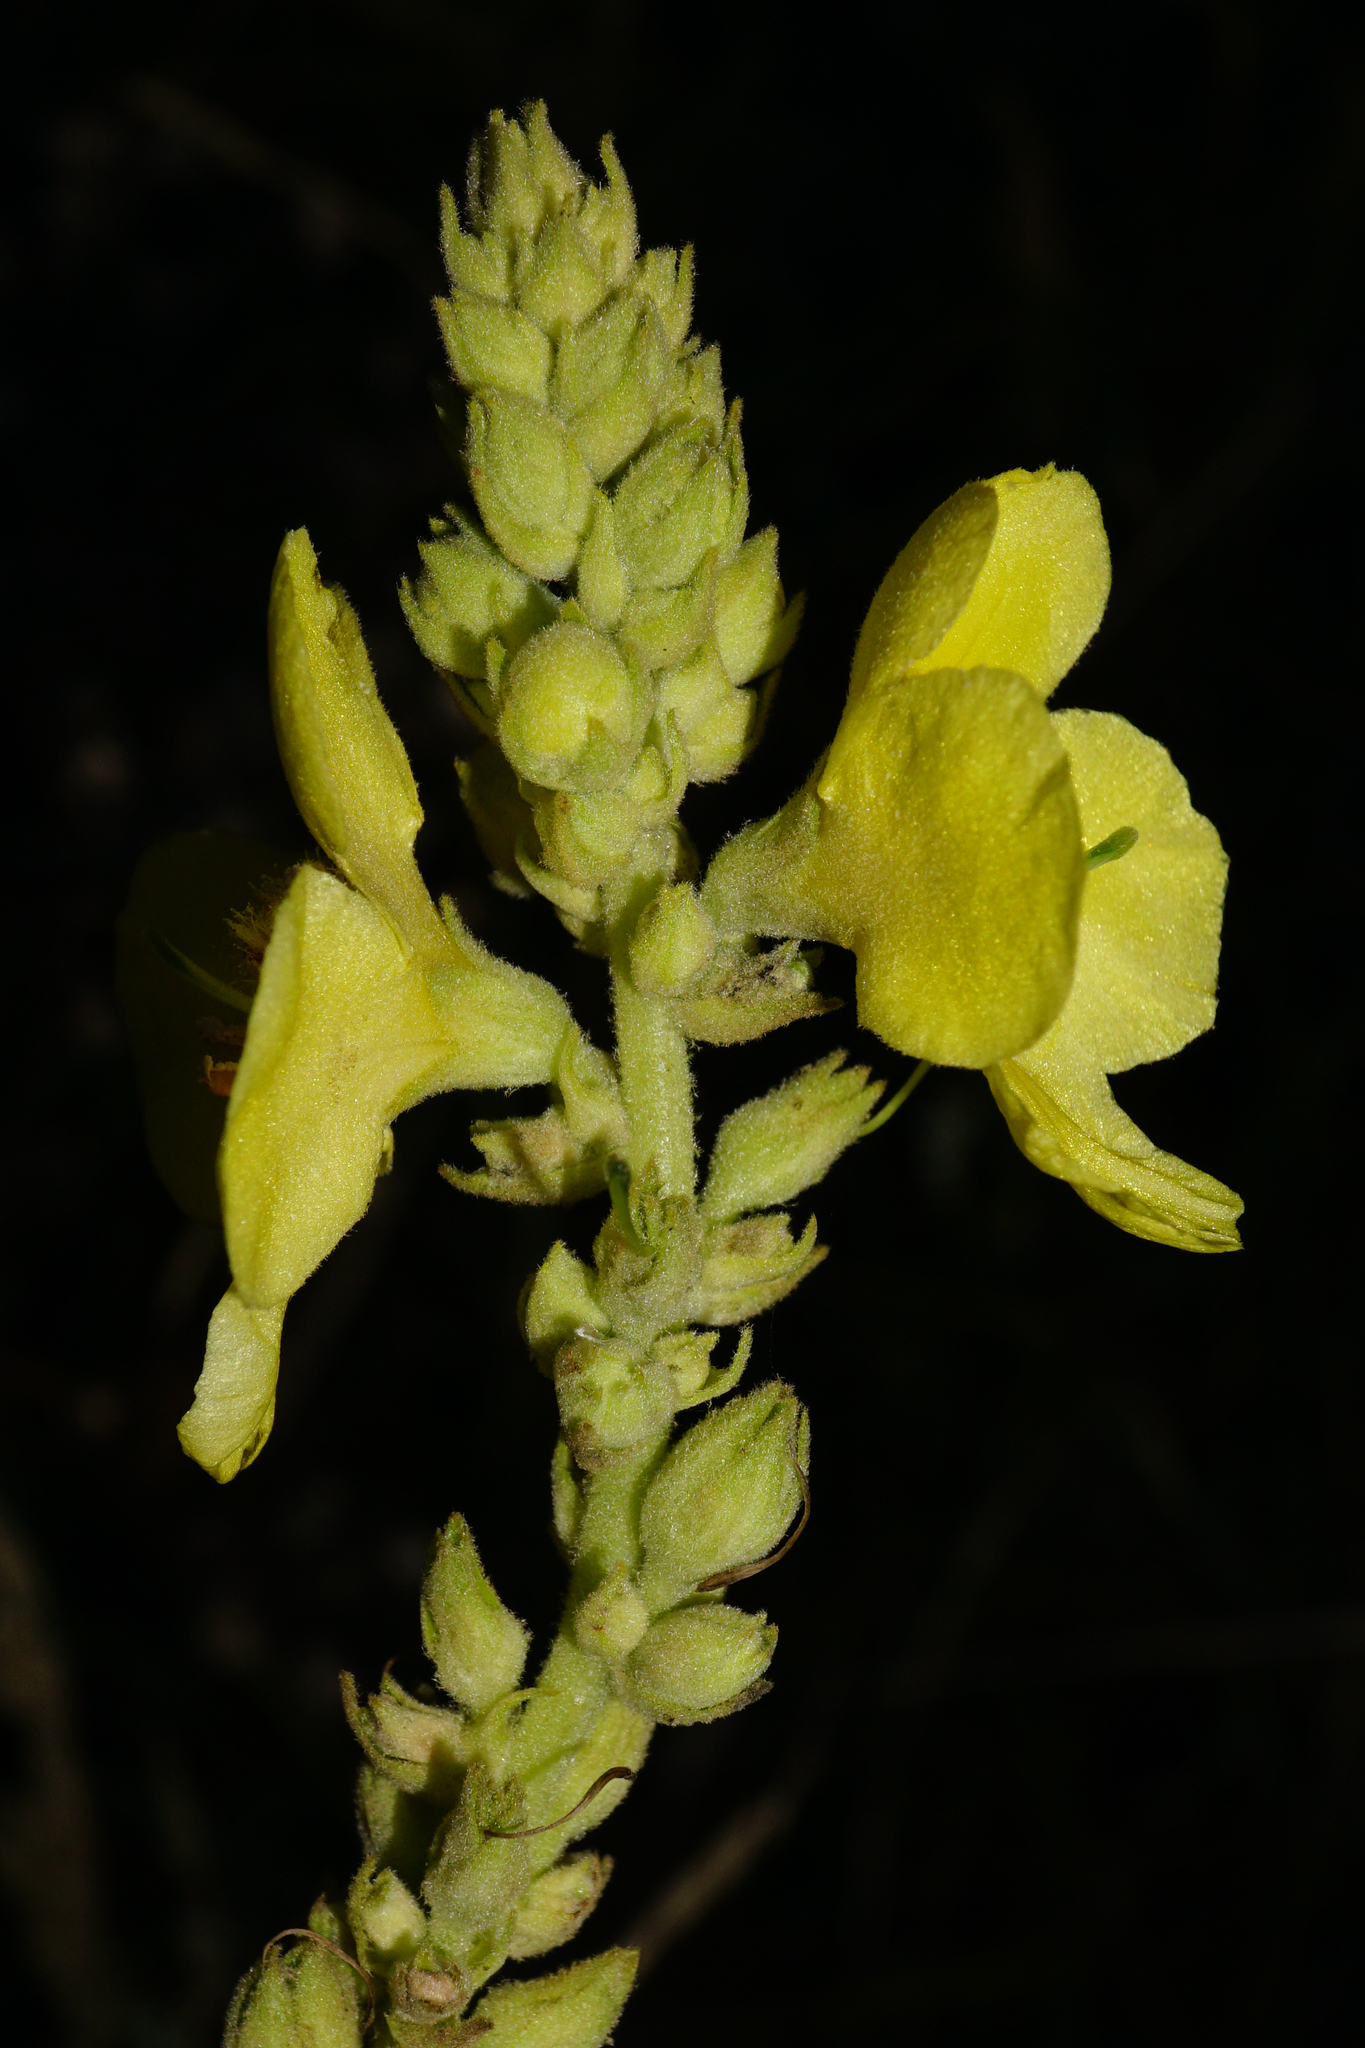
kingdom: Plantae
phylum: Tracheophyta
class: Magnoliopsida
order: Lamiales
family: Scrophulariaceae
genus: Verbascum
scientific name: Verbascum phlomoides
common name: Orange mullein
